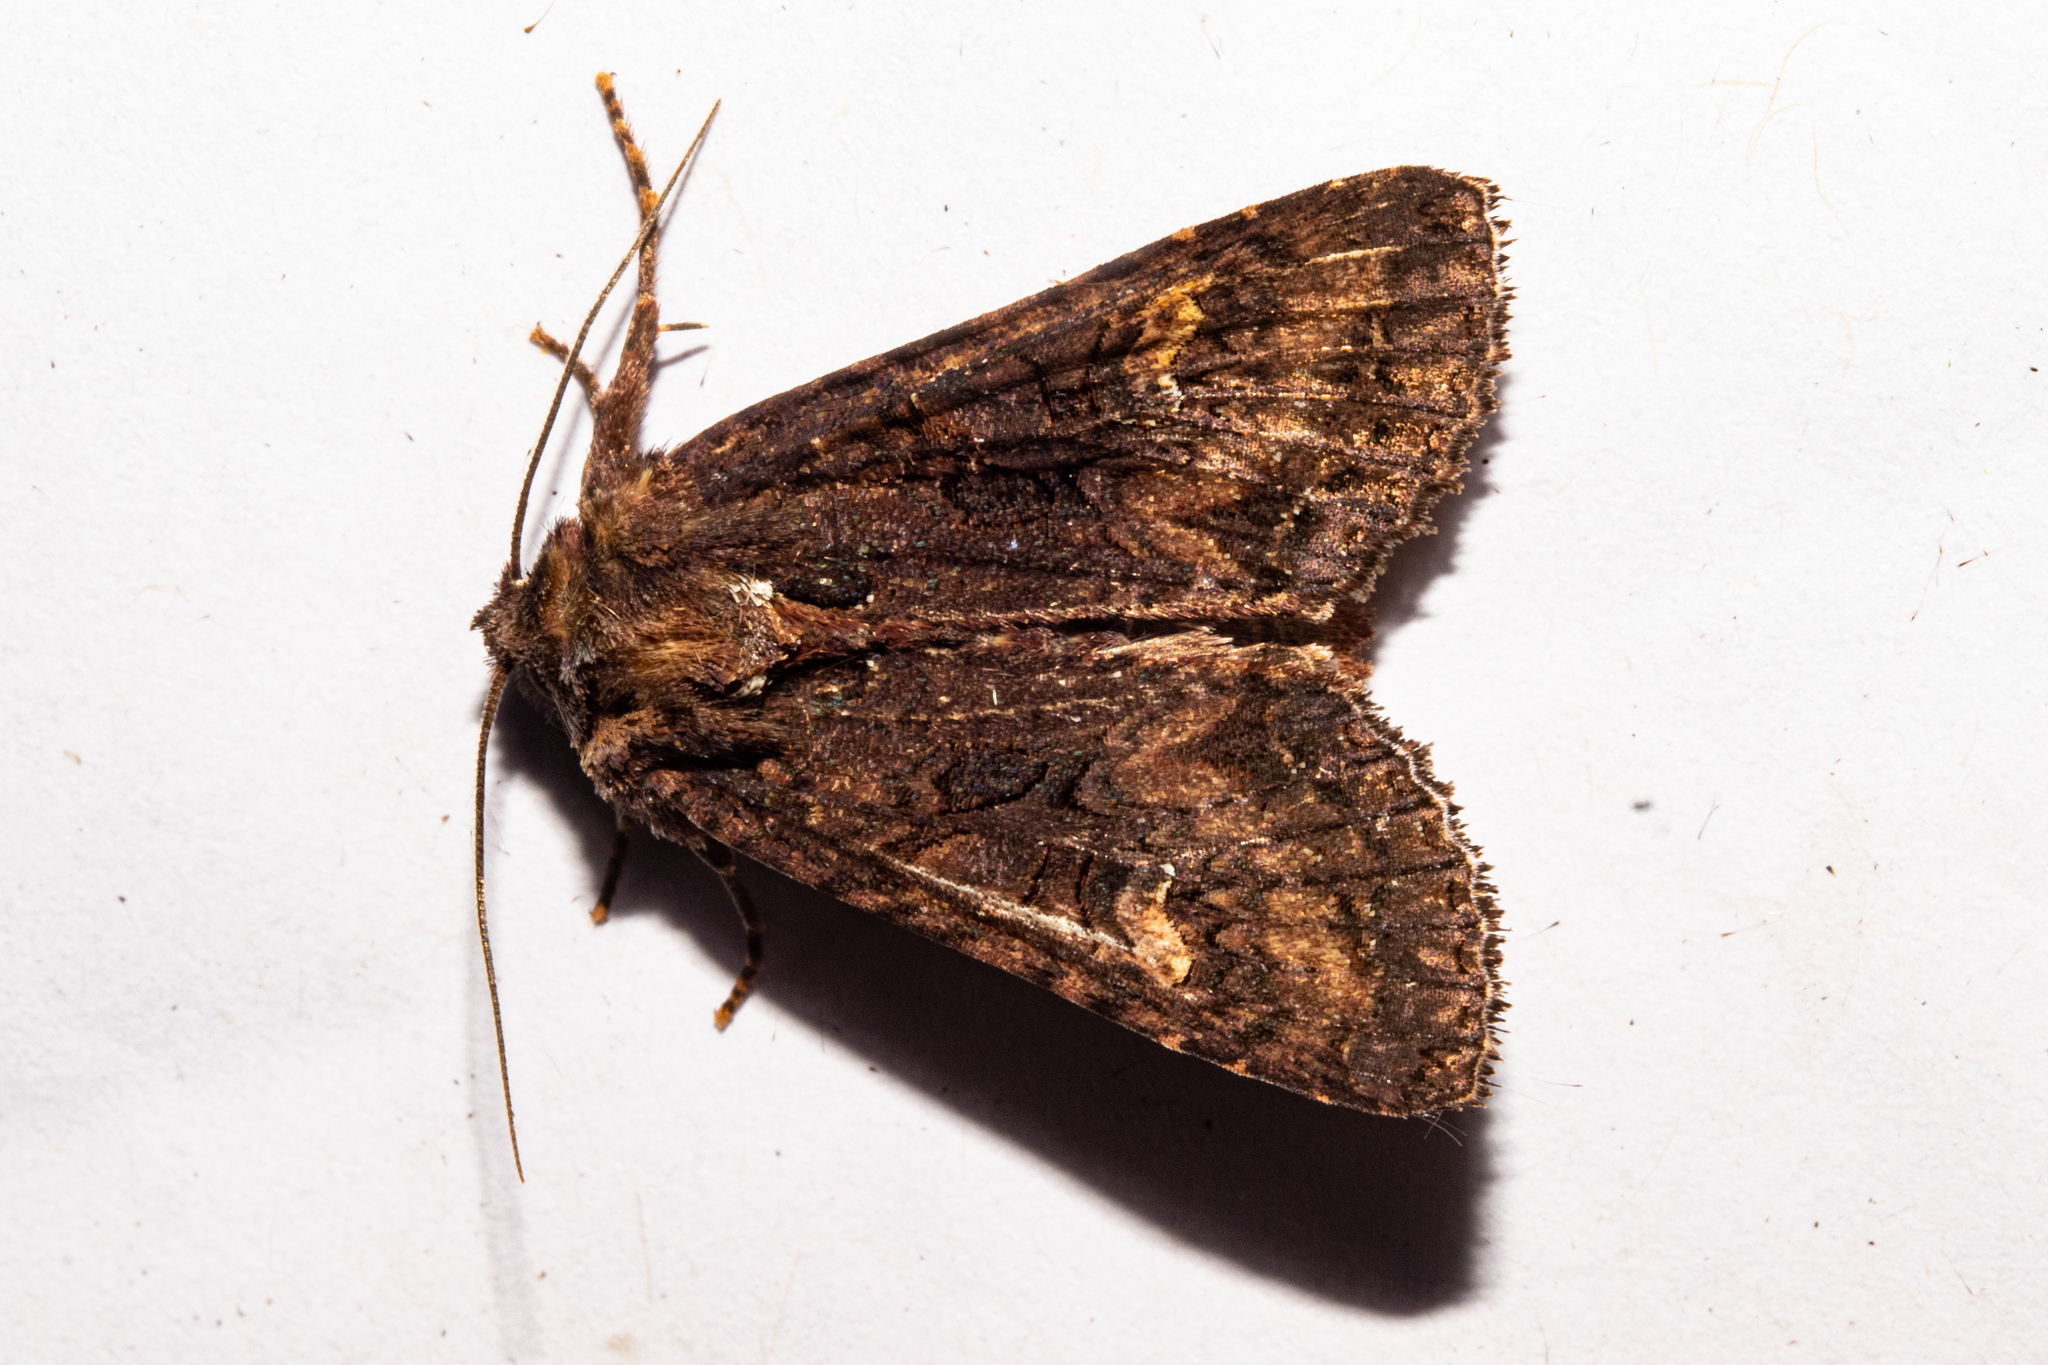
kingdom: Animalia
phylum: Arthropoda
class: Insecta
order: Lepidoptera
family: Noctuidae
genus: Meterana
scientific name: Meterana dotata
